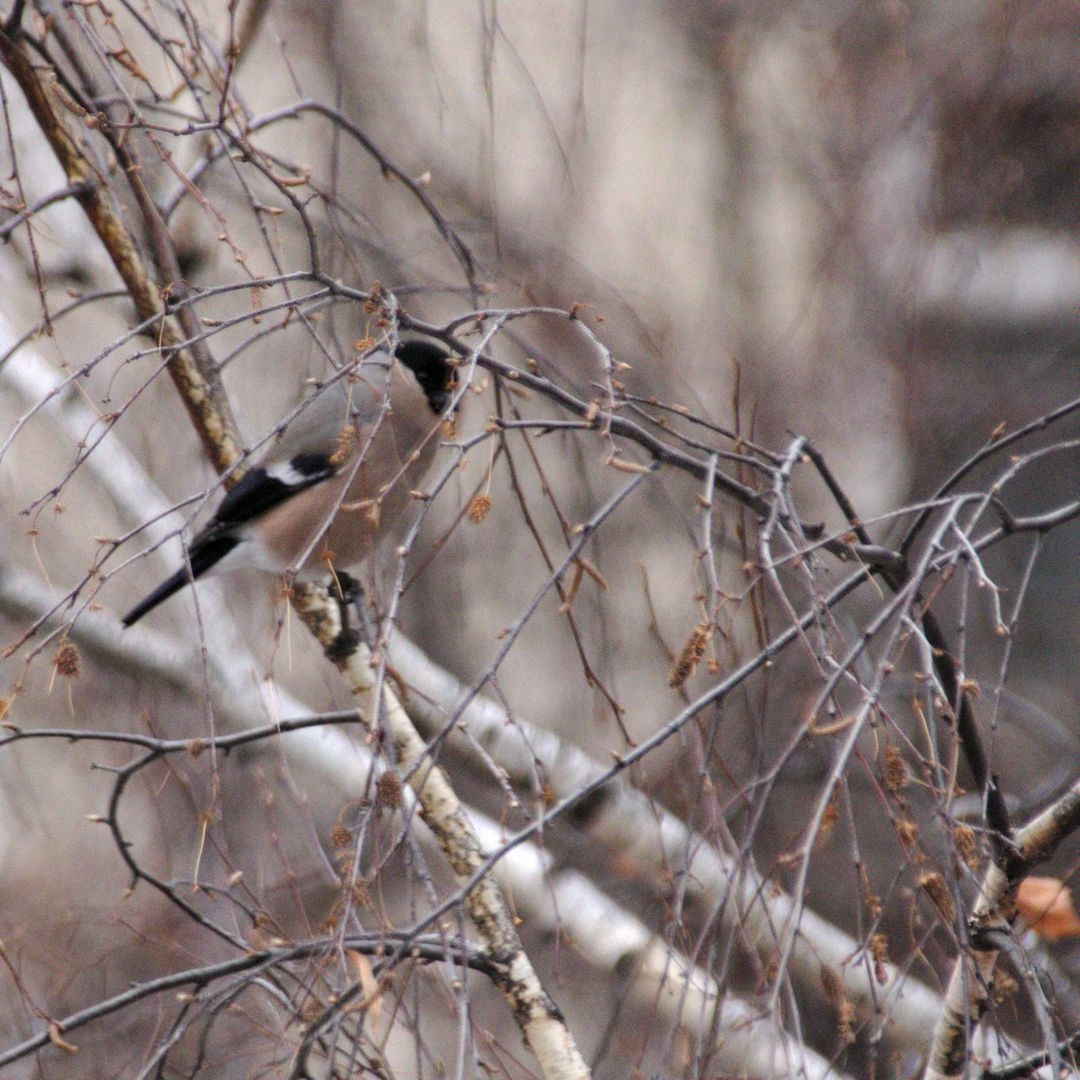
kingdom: Animalia
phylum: Chordata
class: Aves
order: Passeriformes
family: Fringillidae
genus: Pyrrhula
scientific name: Pyrrhula pyrrhula
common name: Eurasian bullfinch
